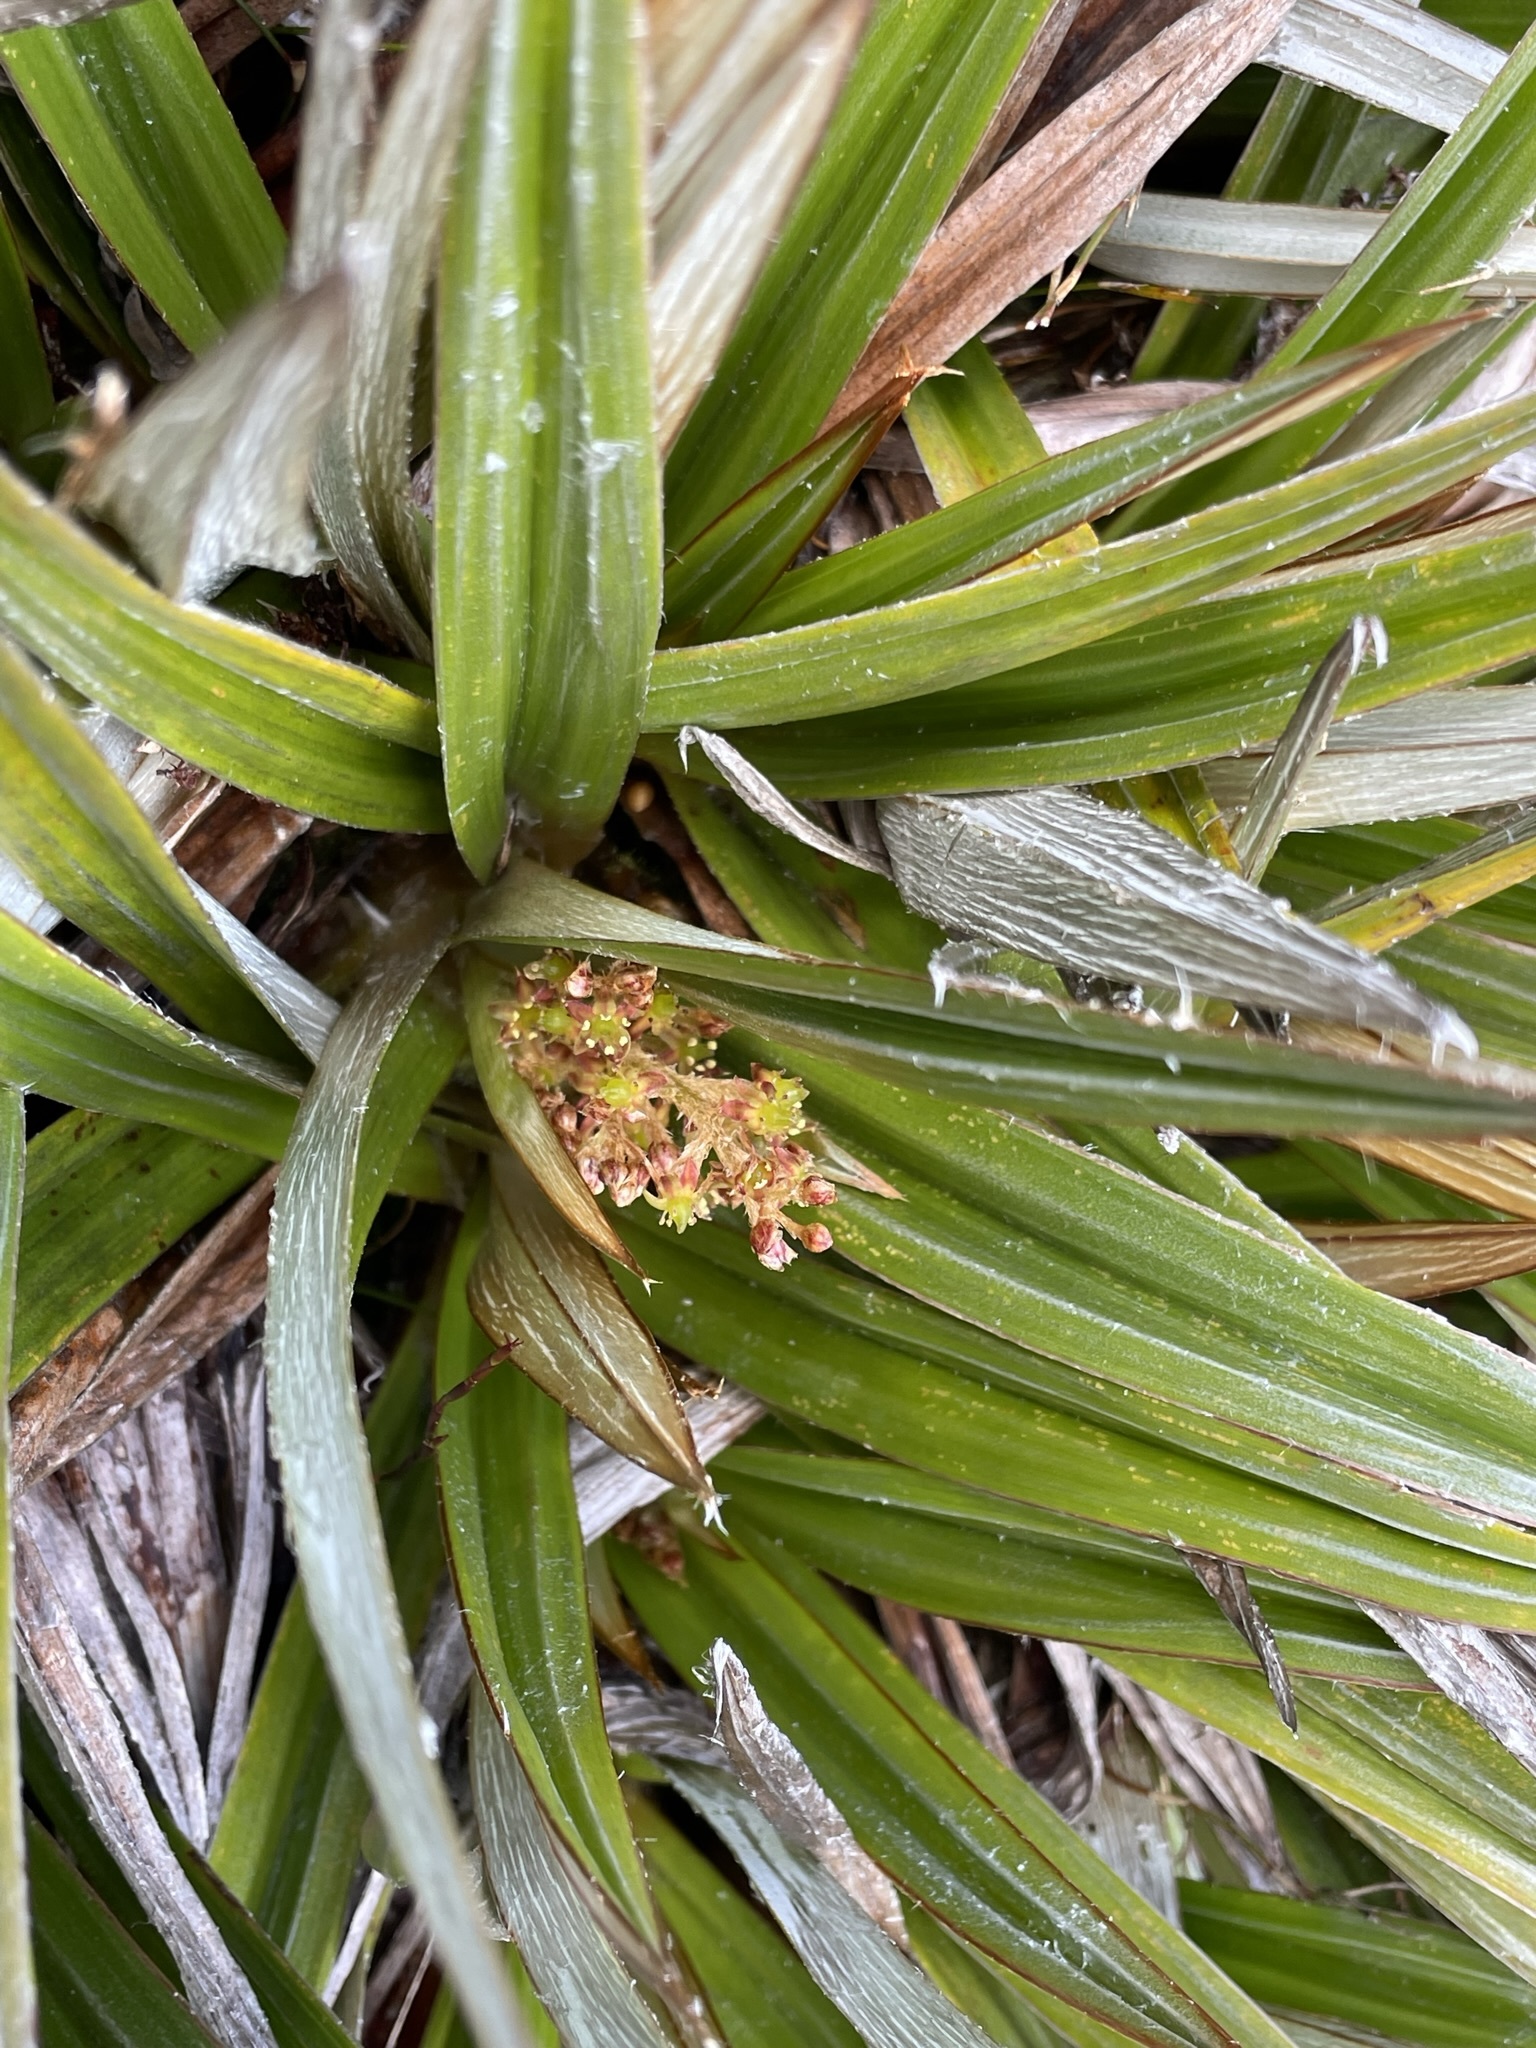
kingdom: Plantae
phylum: Tracheophyta
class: Liliopsida
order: Asparagales
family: Asteliaceae
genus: Astelia
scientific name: Astelia alpina
